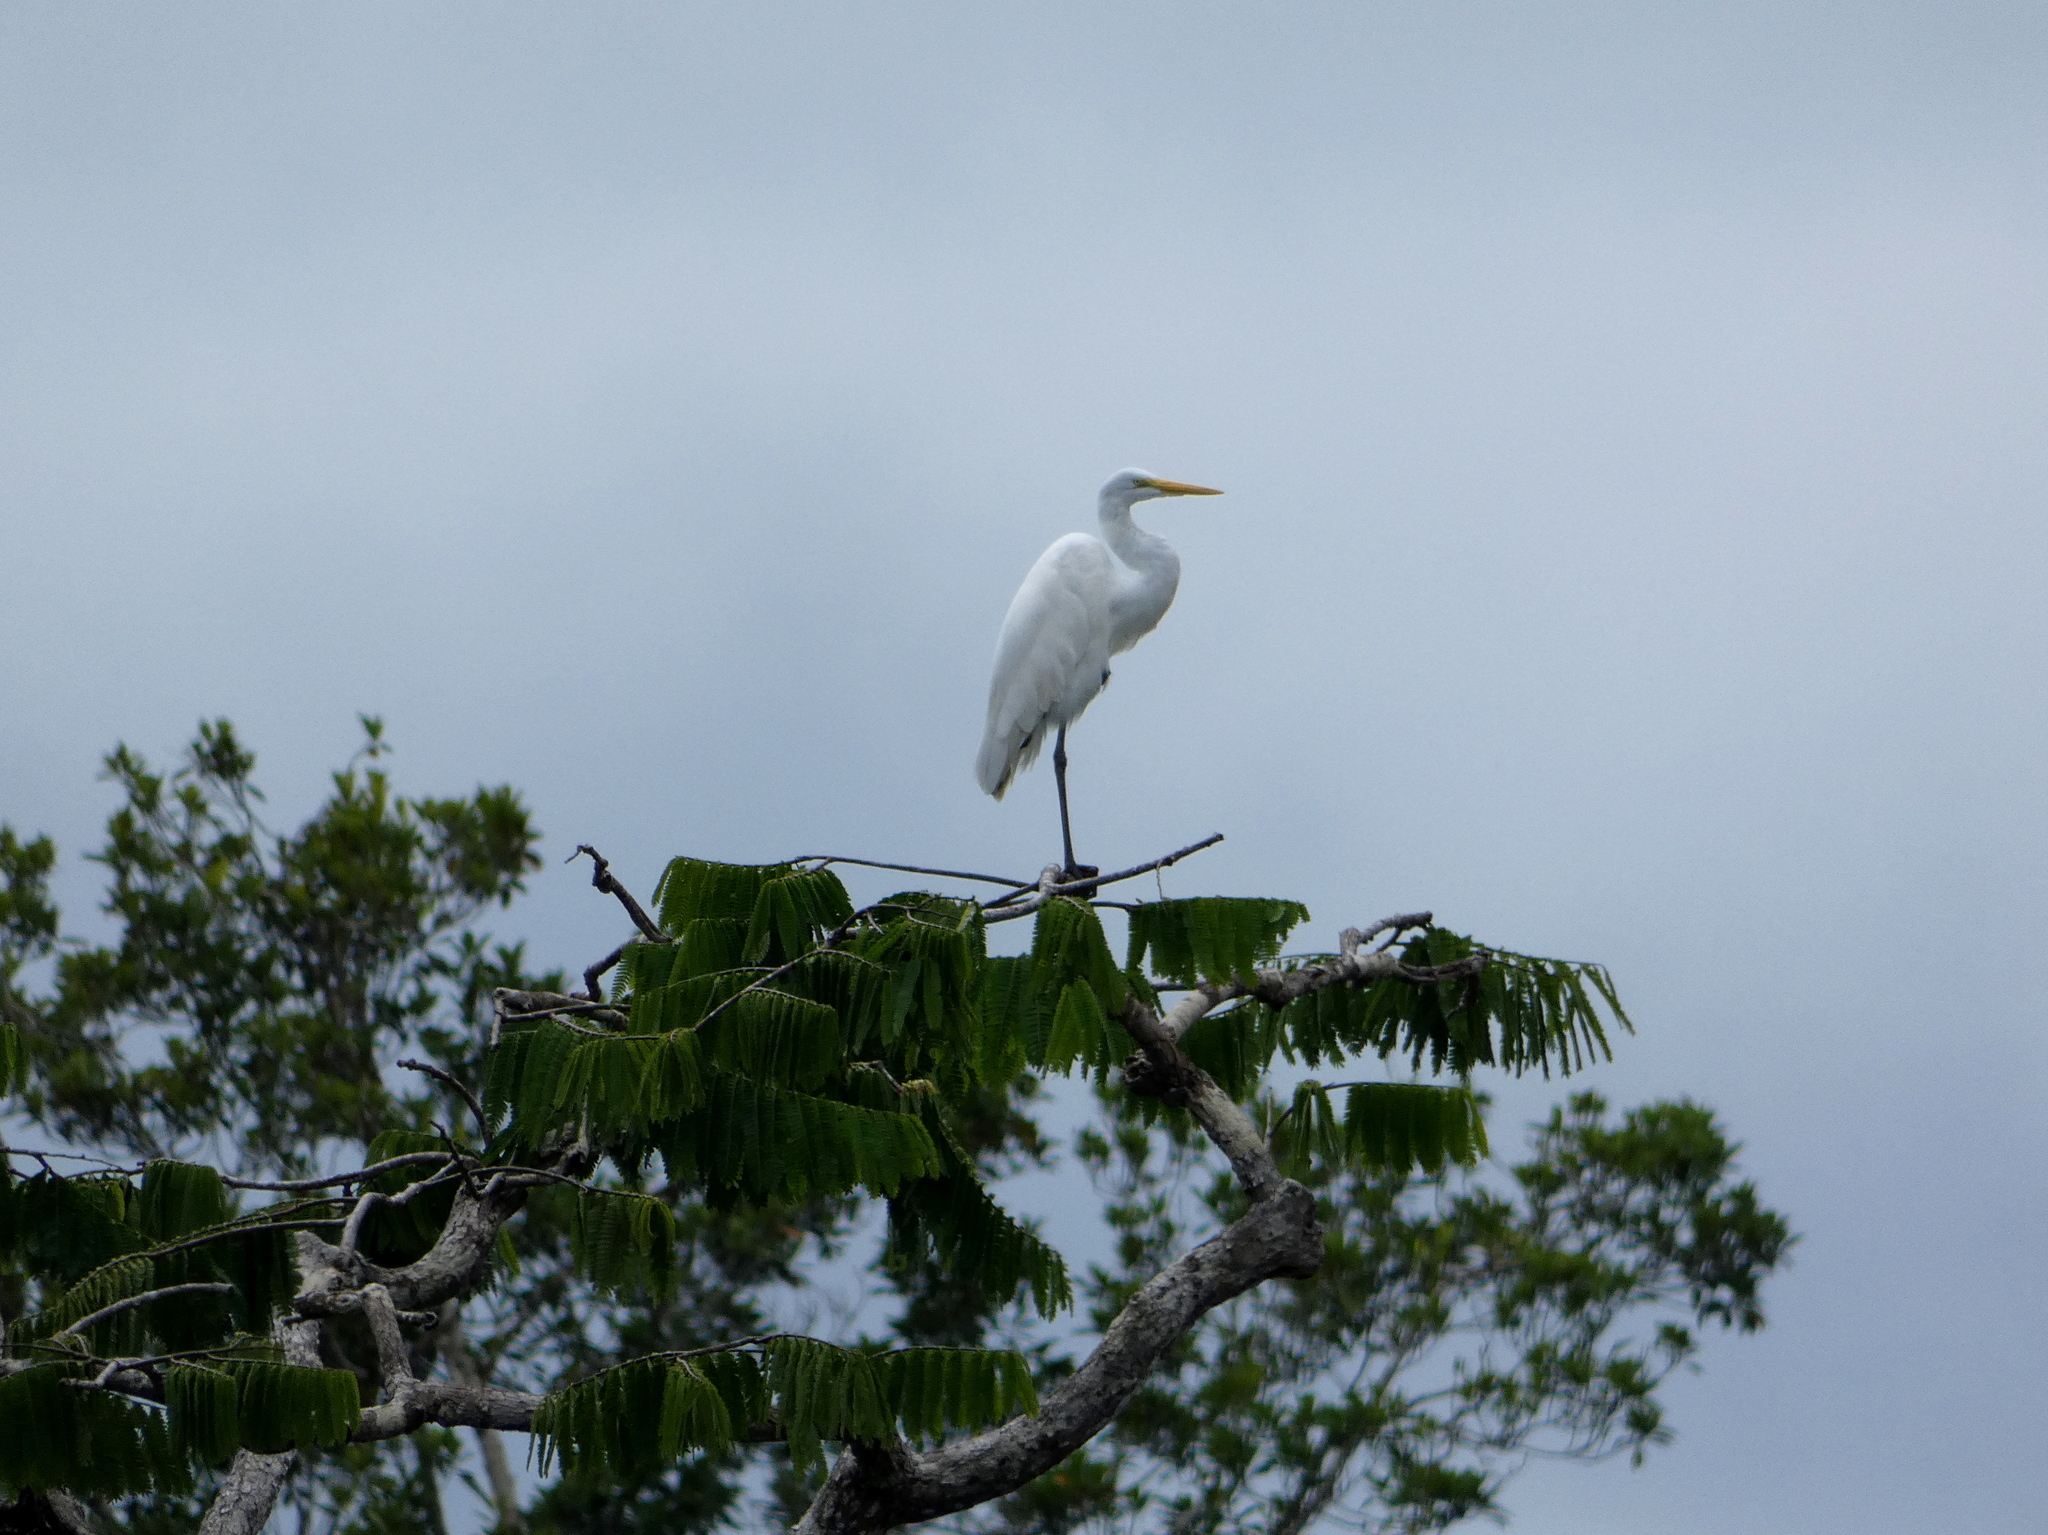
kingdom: Animalia
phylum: Chordata
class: Aves
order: Pelecaniformes
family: Ardeidae
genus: Ardea
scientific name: Ardea alba
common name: Great egret
